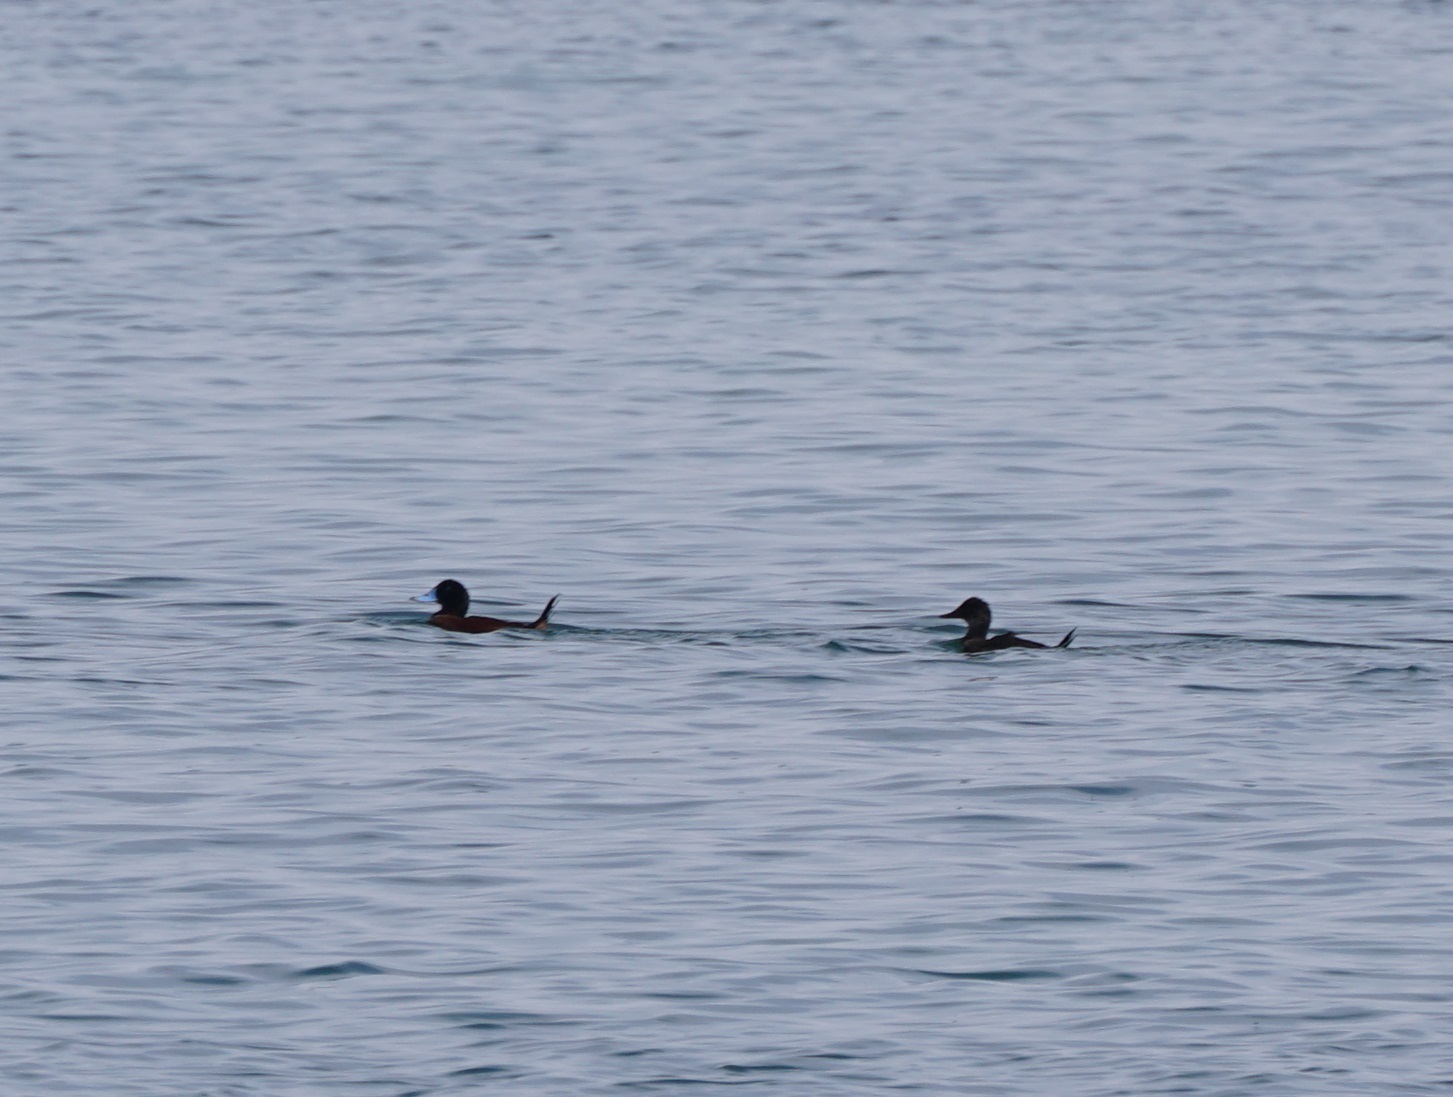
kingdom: Animalia
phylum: Chordata
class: Aves
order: Anseriformes
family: Anatidae
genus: Oxyura
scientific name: Oxyura ferruginea
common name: Andean duck
